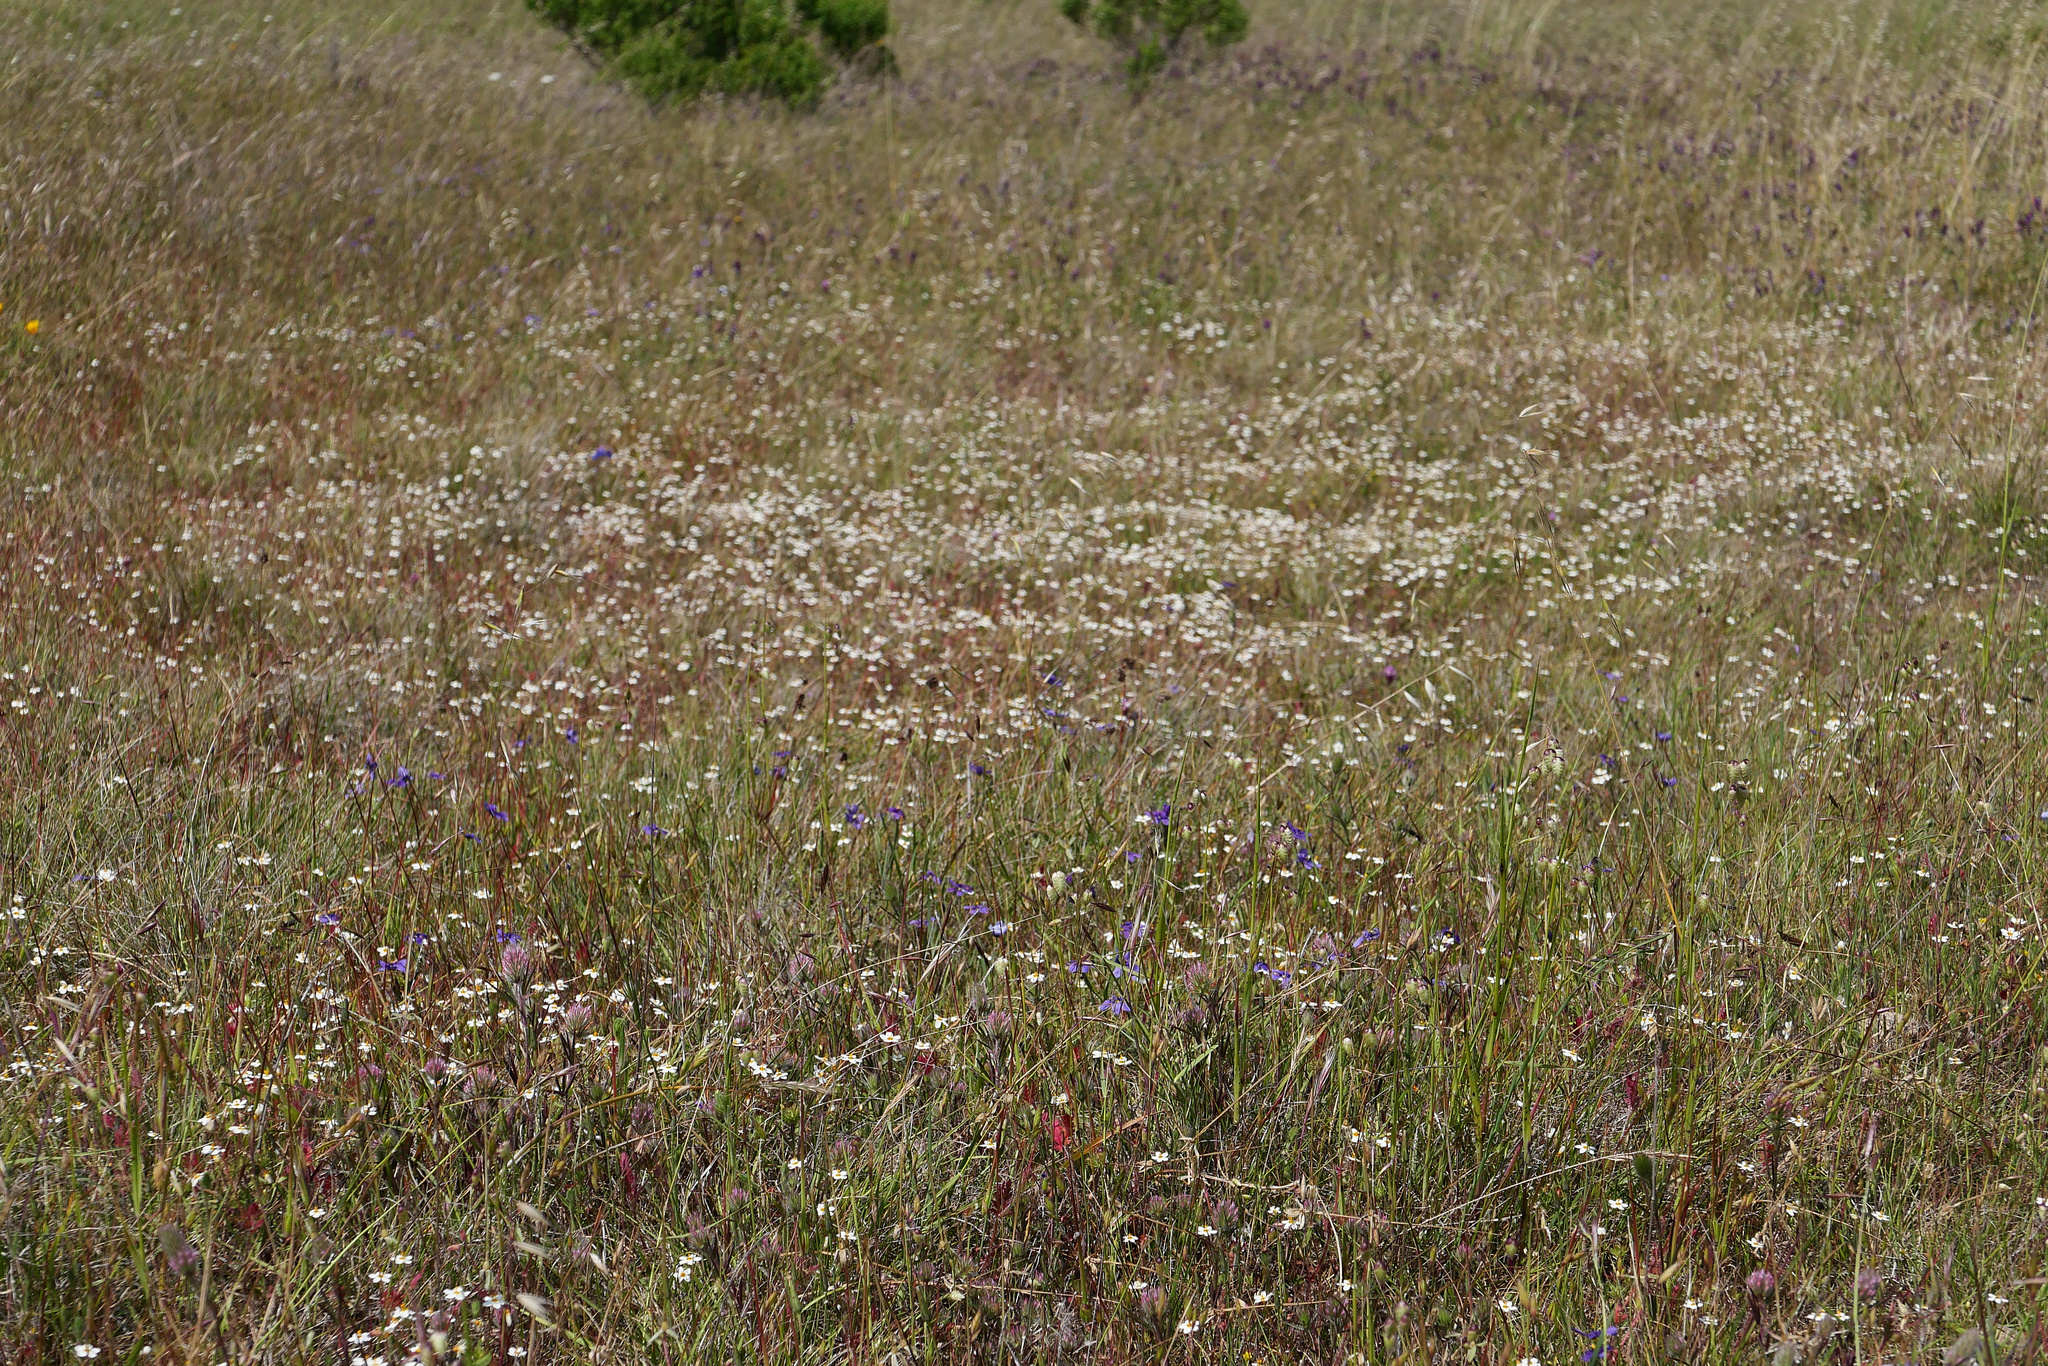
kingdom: Plantae
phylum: Tracheophyta
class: Magnoliopsida
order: Ericales
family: Polemoniaceae
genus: Leptosiphon
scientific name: Leptosiphon parviflorus
